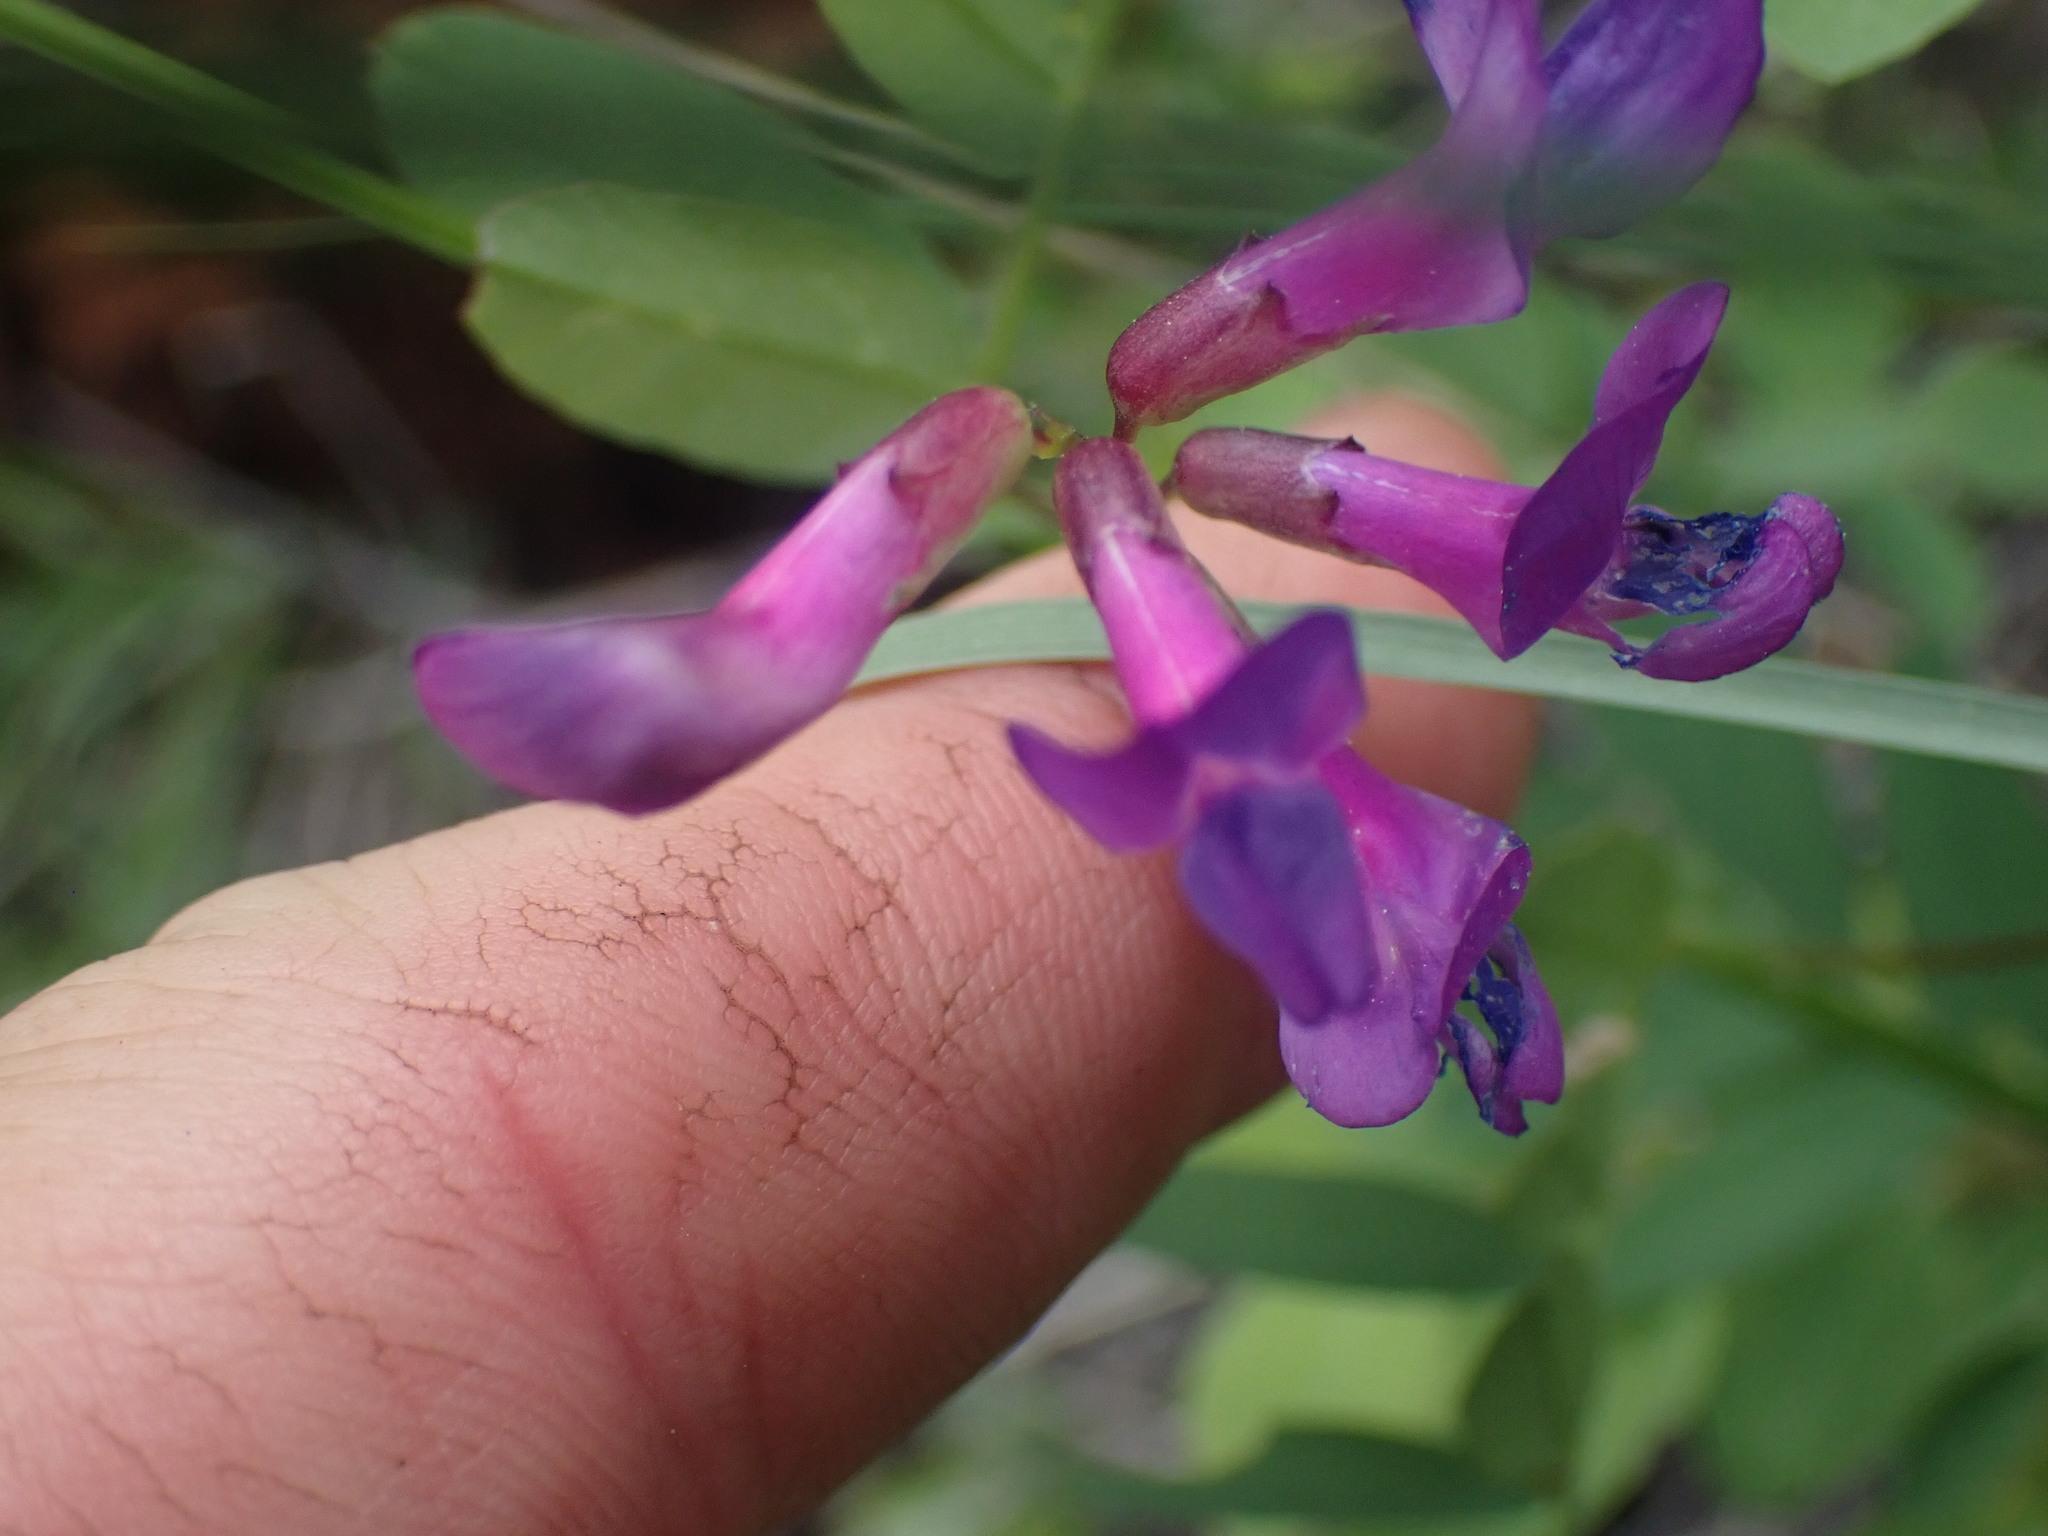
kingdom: Plantae
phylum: Tracheophyta
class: Magnoliopsida
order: Fabales
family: Fabaceae
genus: Vicia
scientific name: Vicia americana
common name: American vetch
